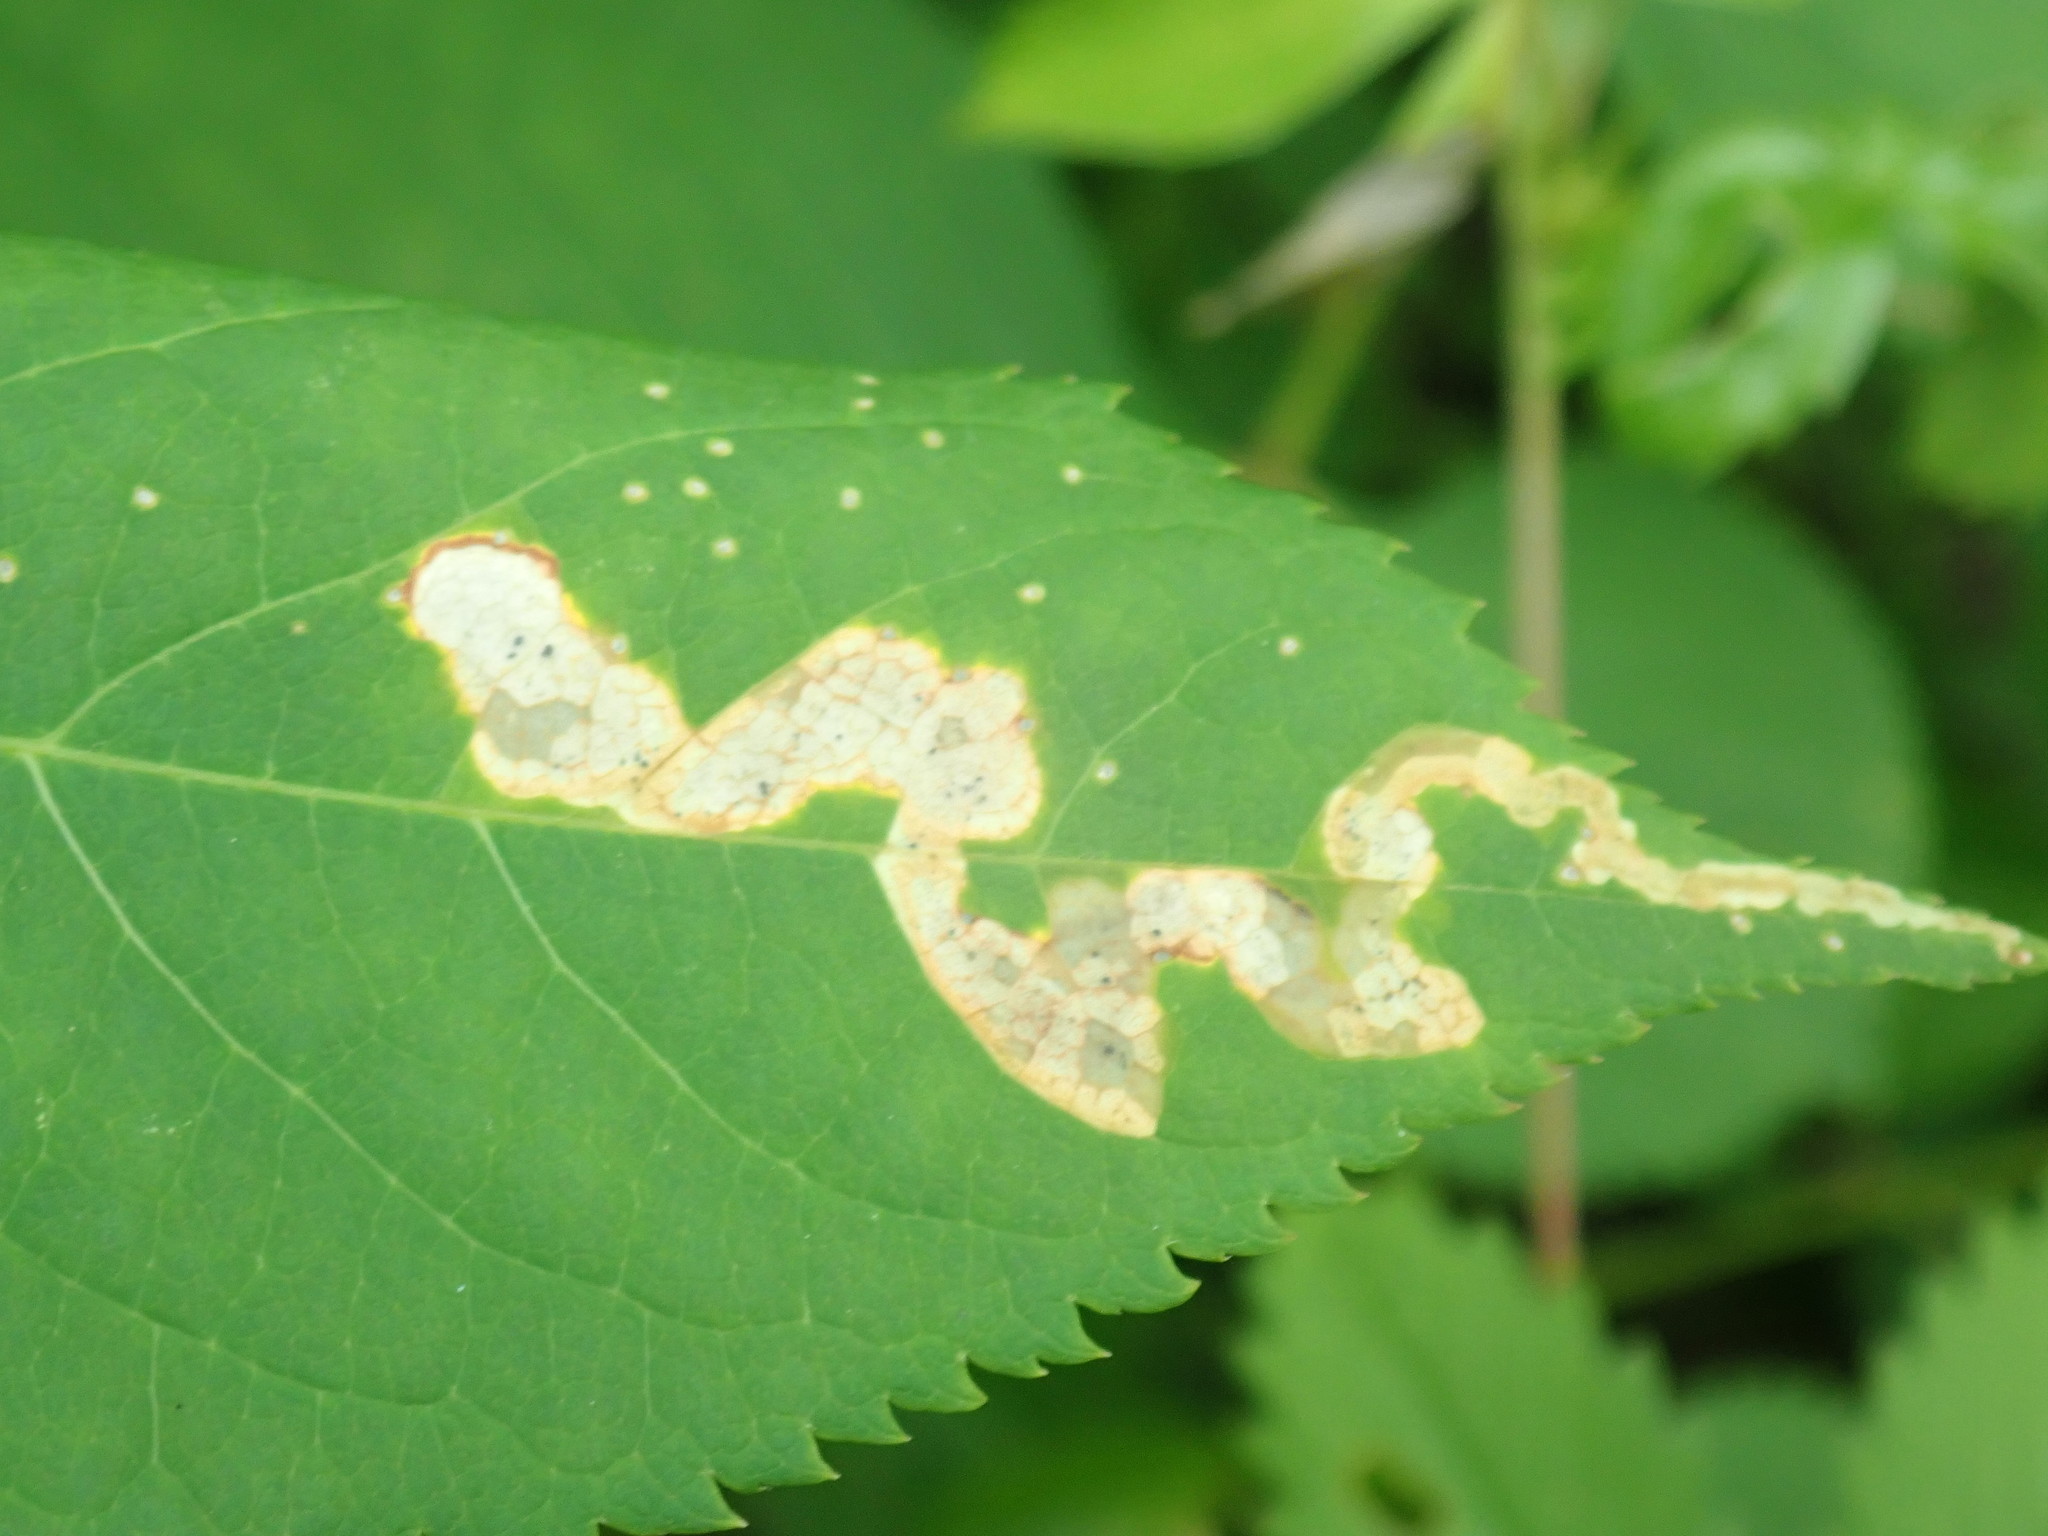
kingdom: Animalia
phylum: Arthropoda
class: Insecta
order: Diptera
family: Agromyzidae
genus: Phytomyza
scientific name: Phytomyza aralivora
